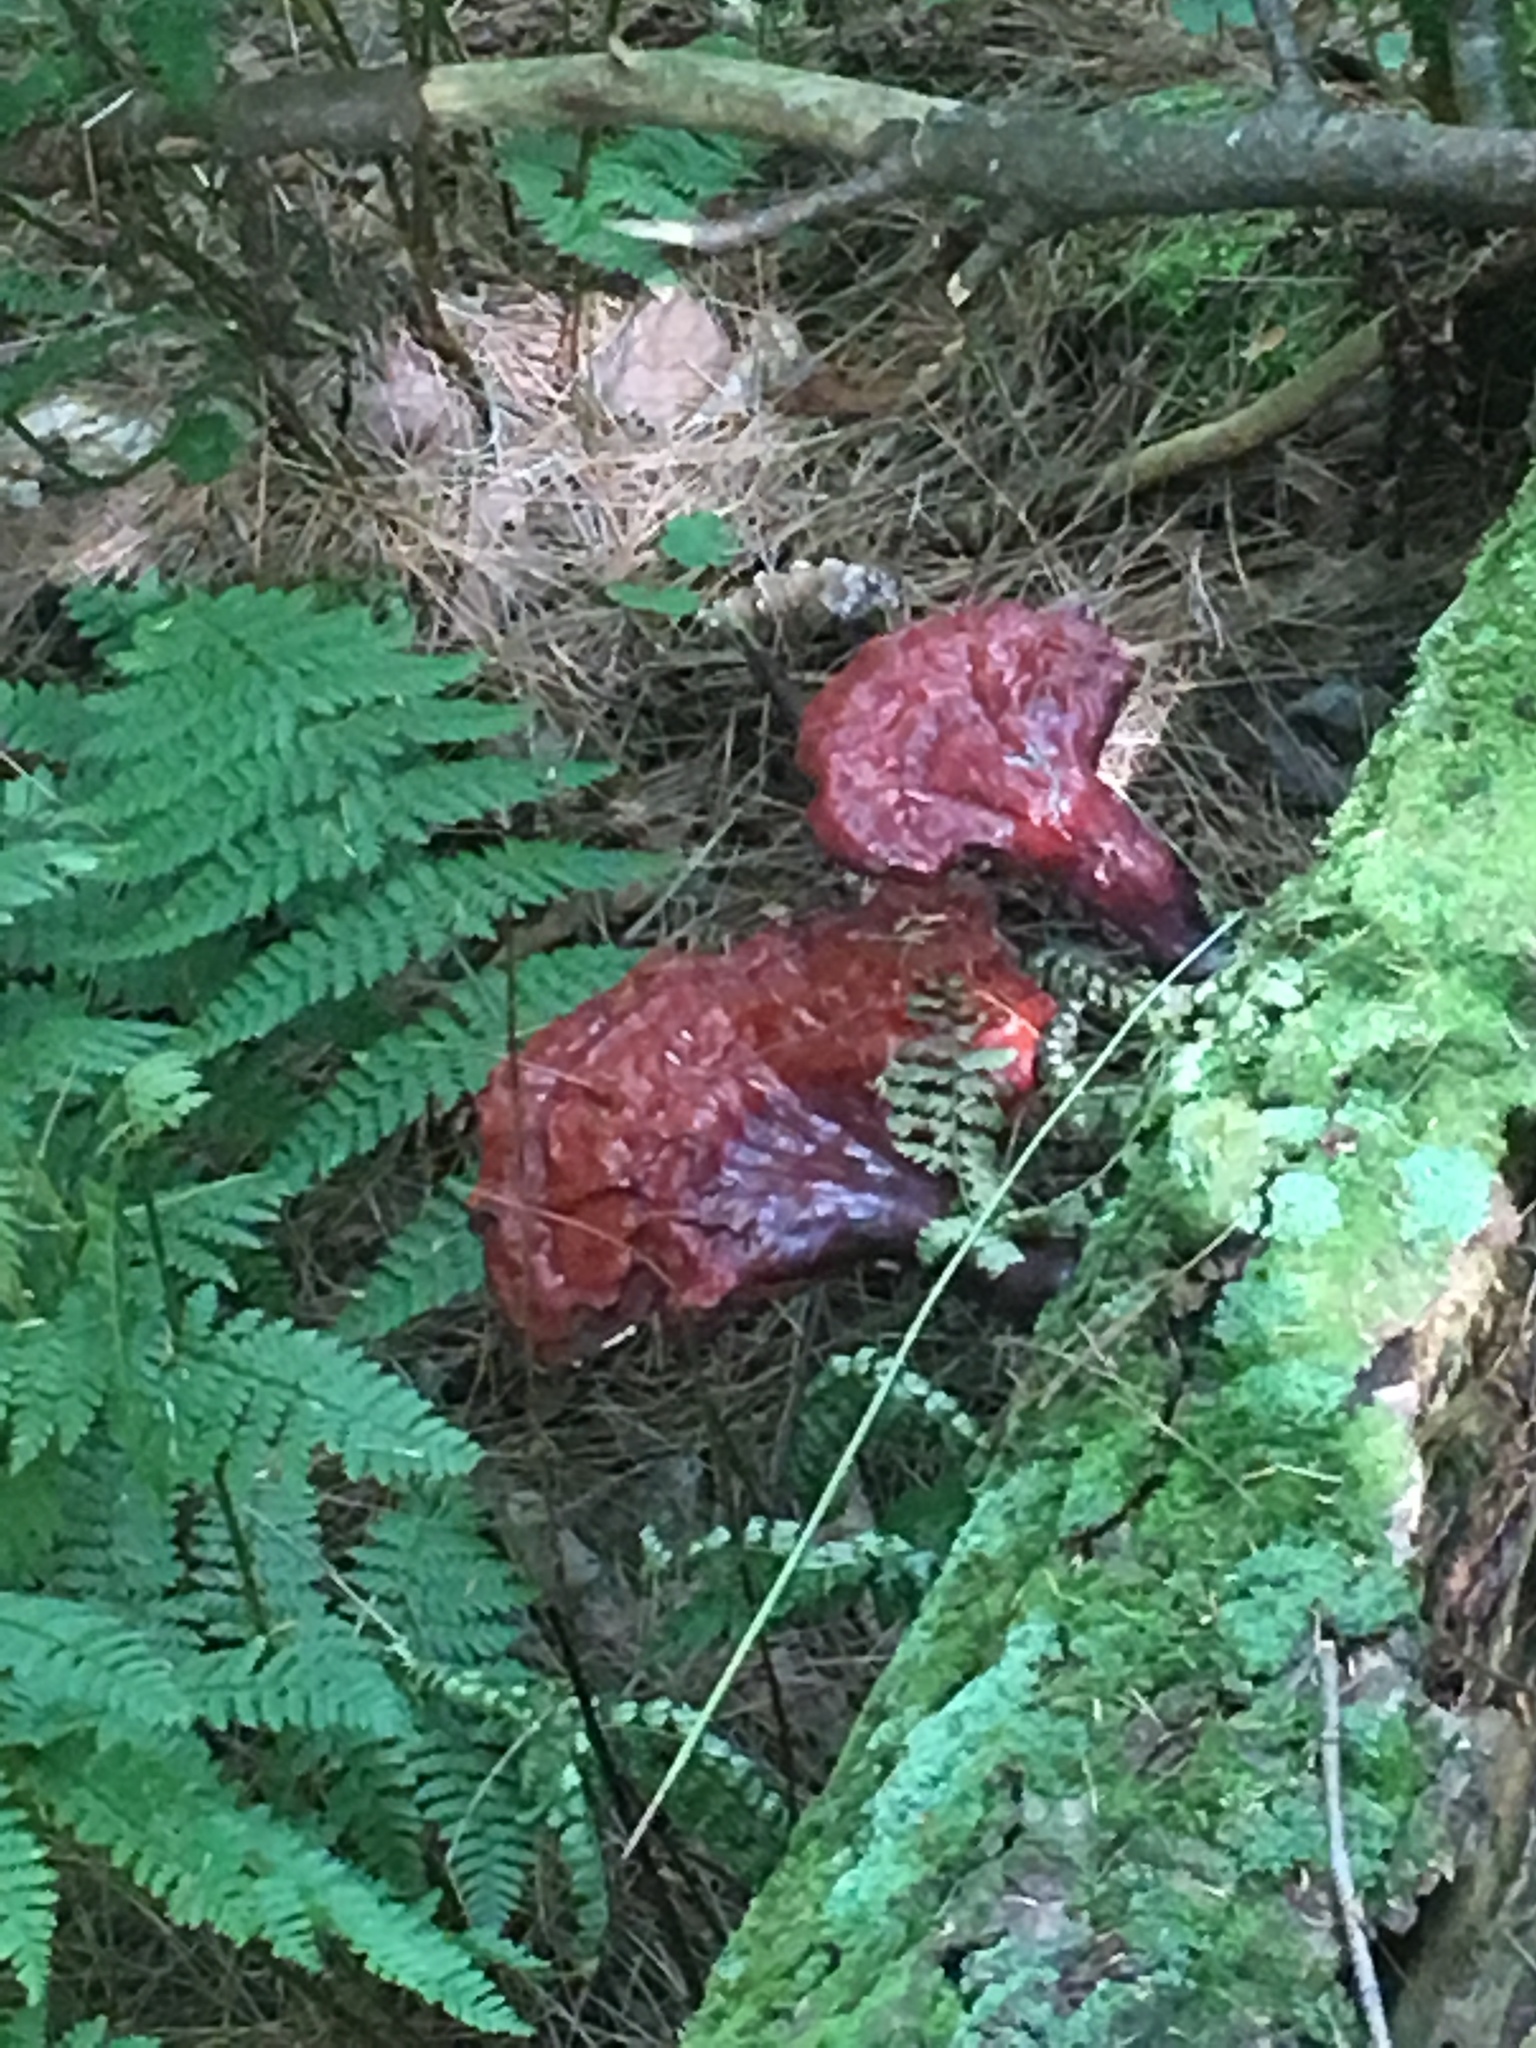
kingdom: Fungi
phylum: Basidiomycota
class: Agaricomycetes
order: Polyporales
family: Polyporaceae
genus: Ganoderma
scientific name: Ganoderma tsugae
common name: Hemlock varnish shelf
